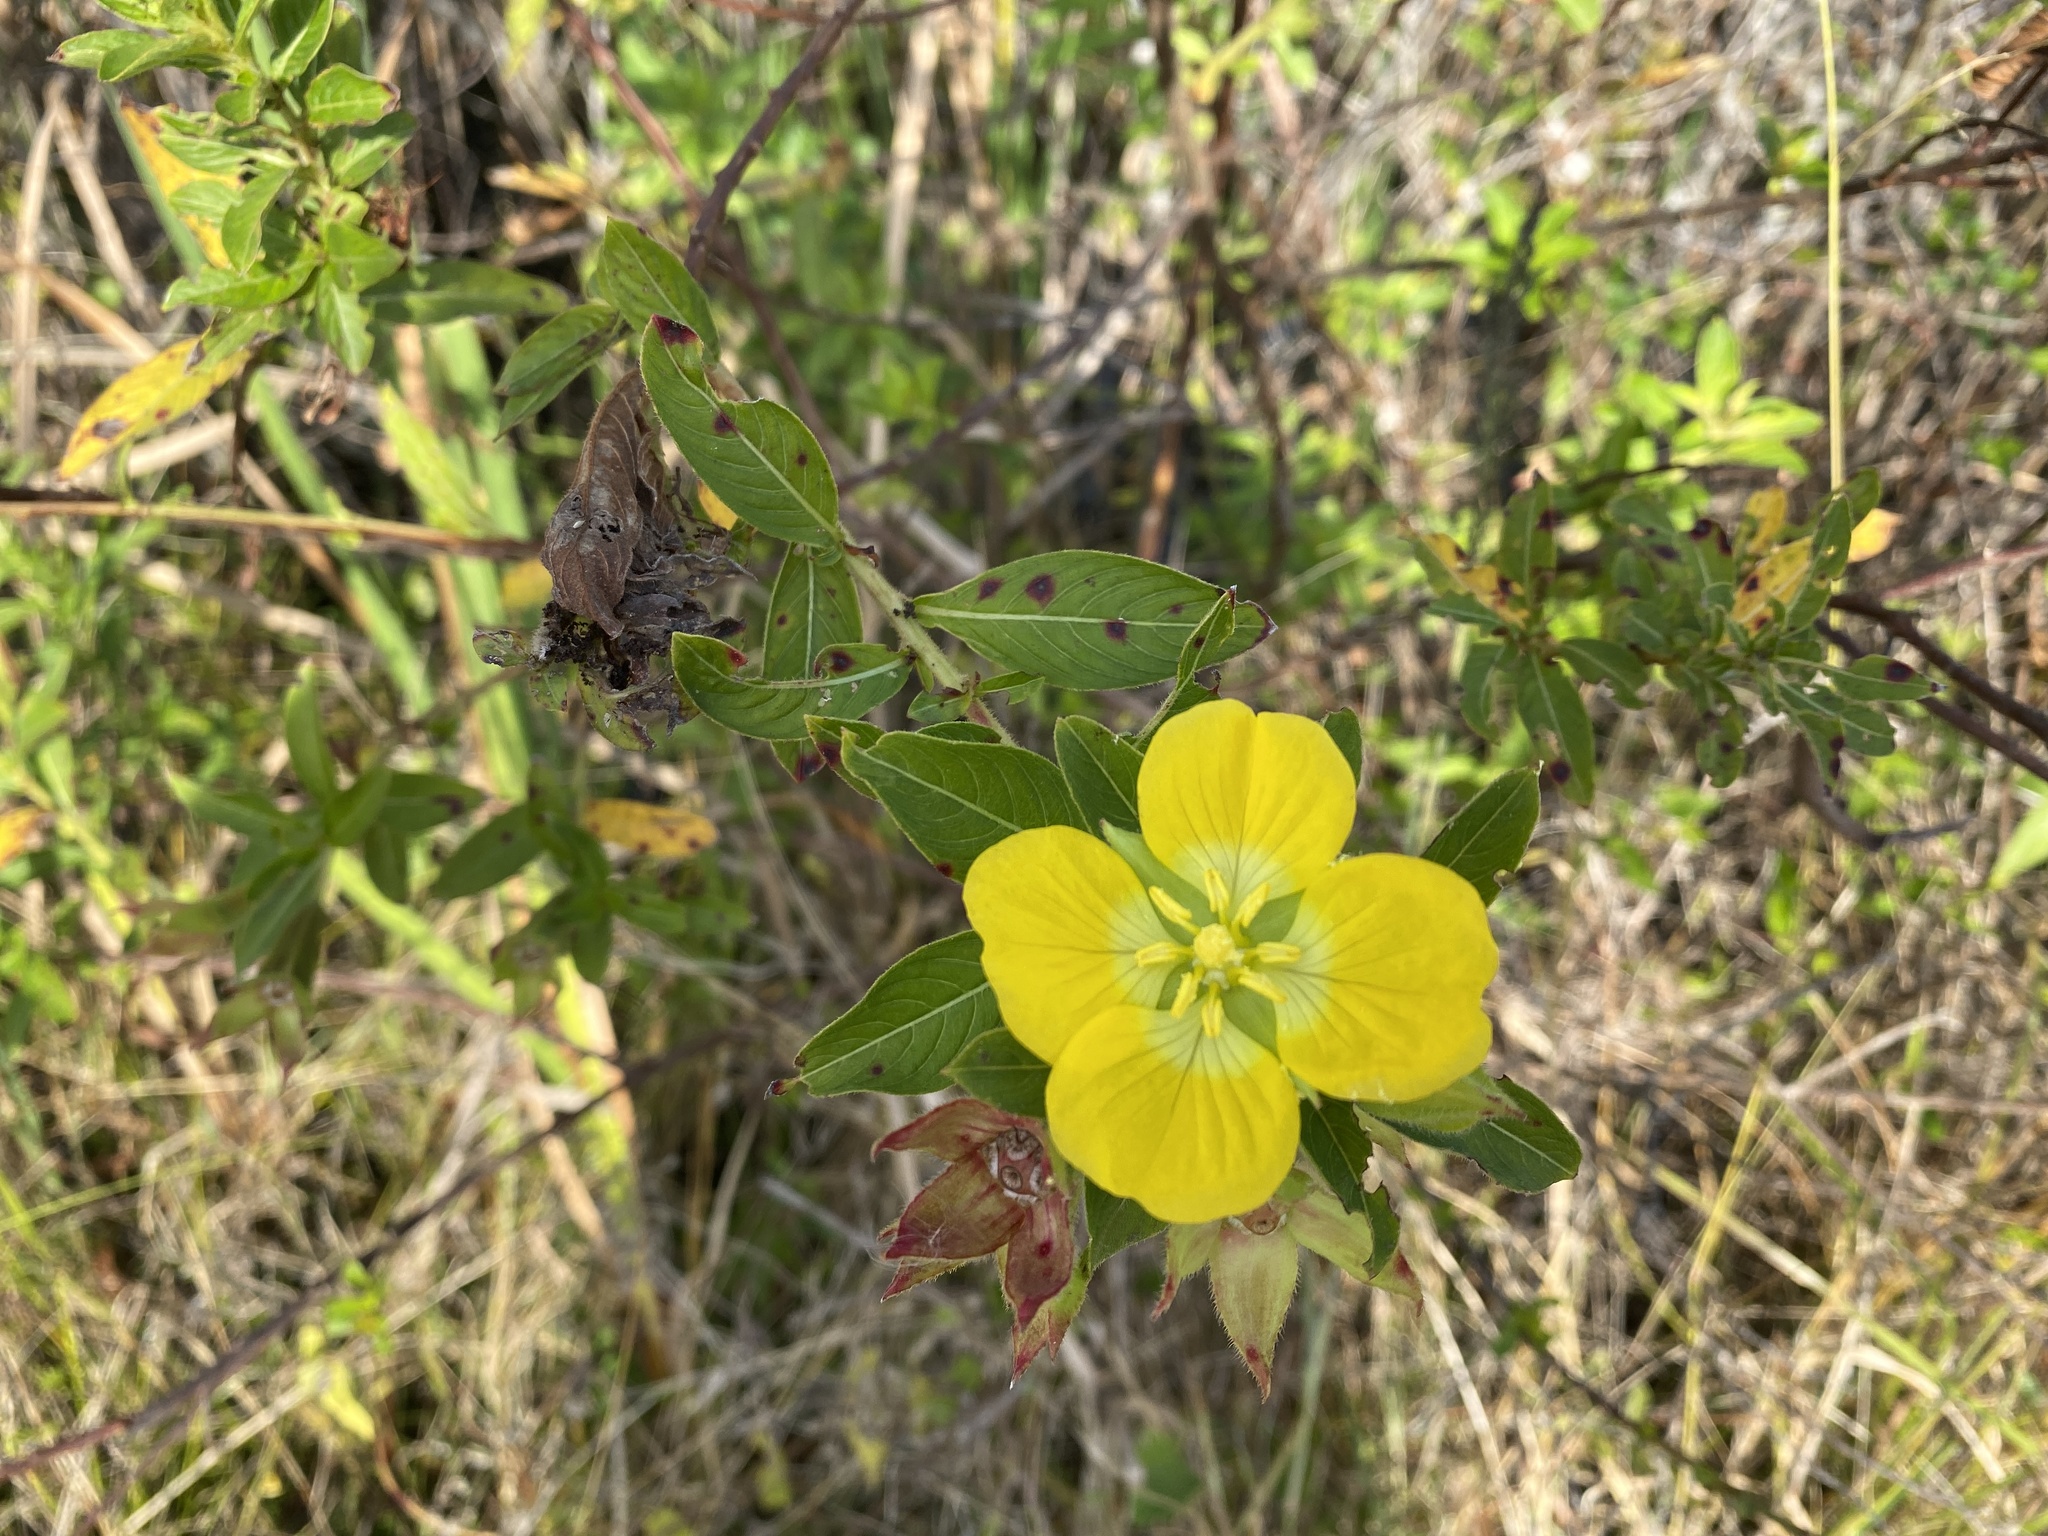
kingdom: Plantae
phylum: Tracheophyta
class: Magnoliopsida
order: Myrtales
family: Onagraceae
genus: Ludwigia
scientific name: Ludwigia peruviana
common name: Peruvian primrose-willow
